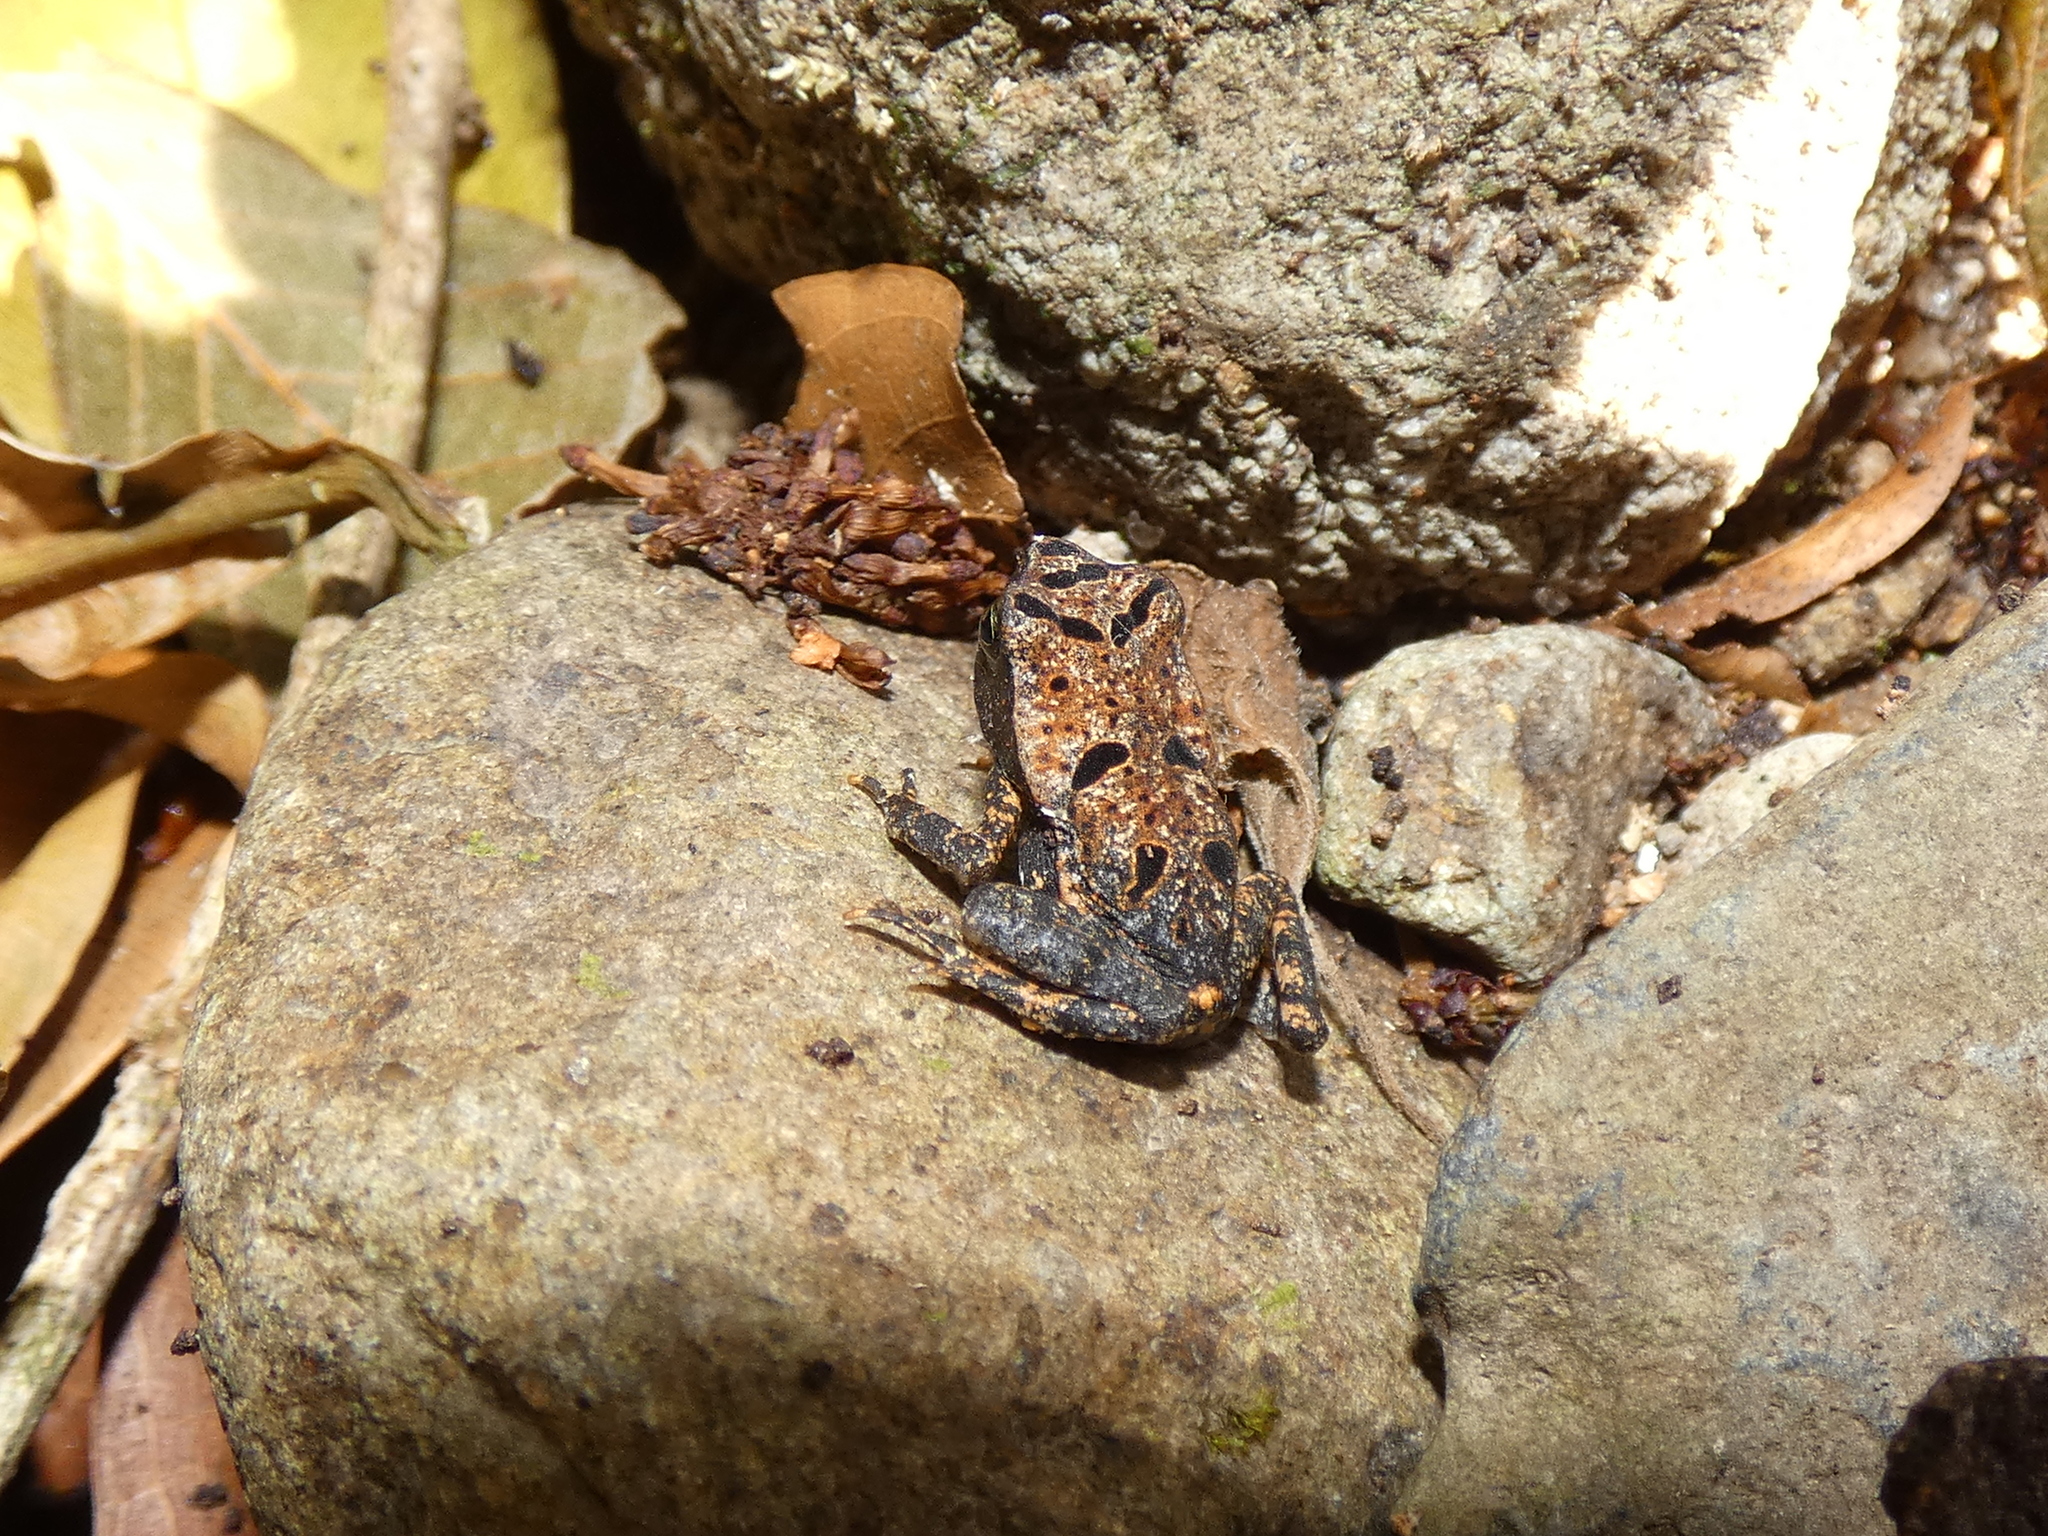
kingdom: Animalia
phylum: Chordata
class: Amphibia
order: Anura
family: Bufonidae
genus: Rhaebo
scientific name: Rhaebo haematiticus
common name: Truando toad
